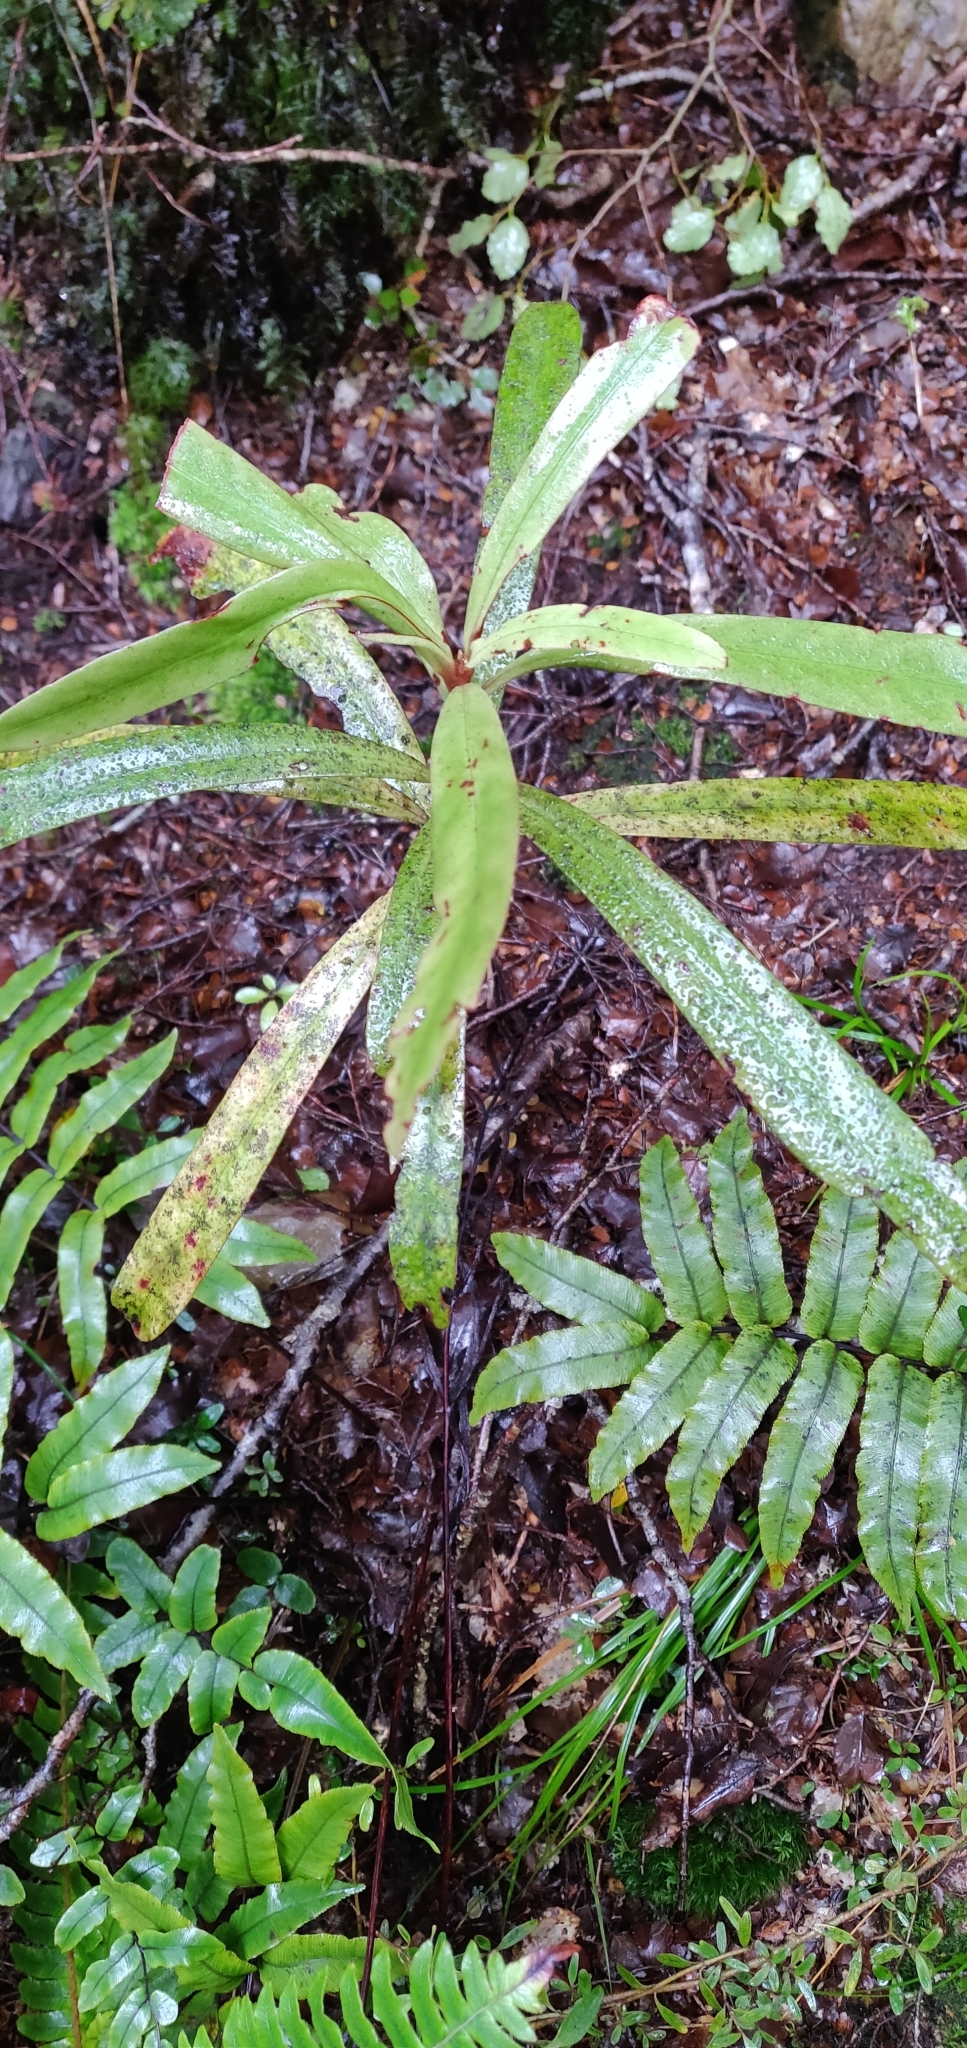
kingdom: Plantae
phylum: Tracheophyta
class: Magnoliopsida
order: Ericales
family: Primulaceae
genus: Myrsine
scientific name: Myrsine salicina
